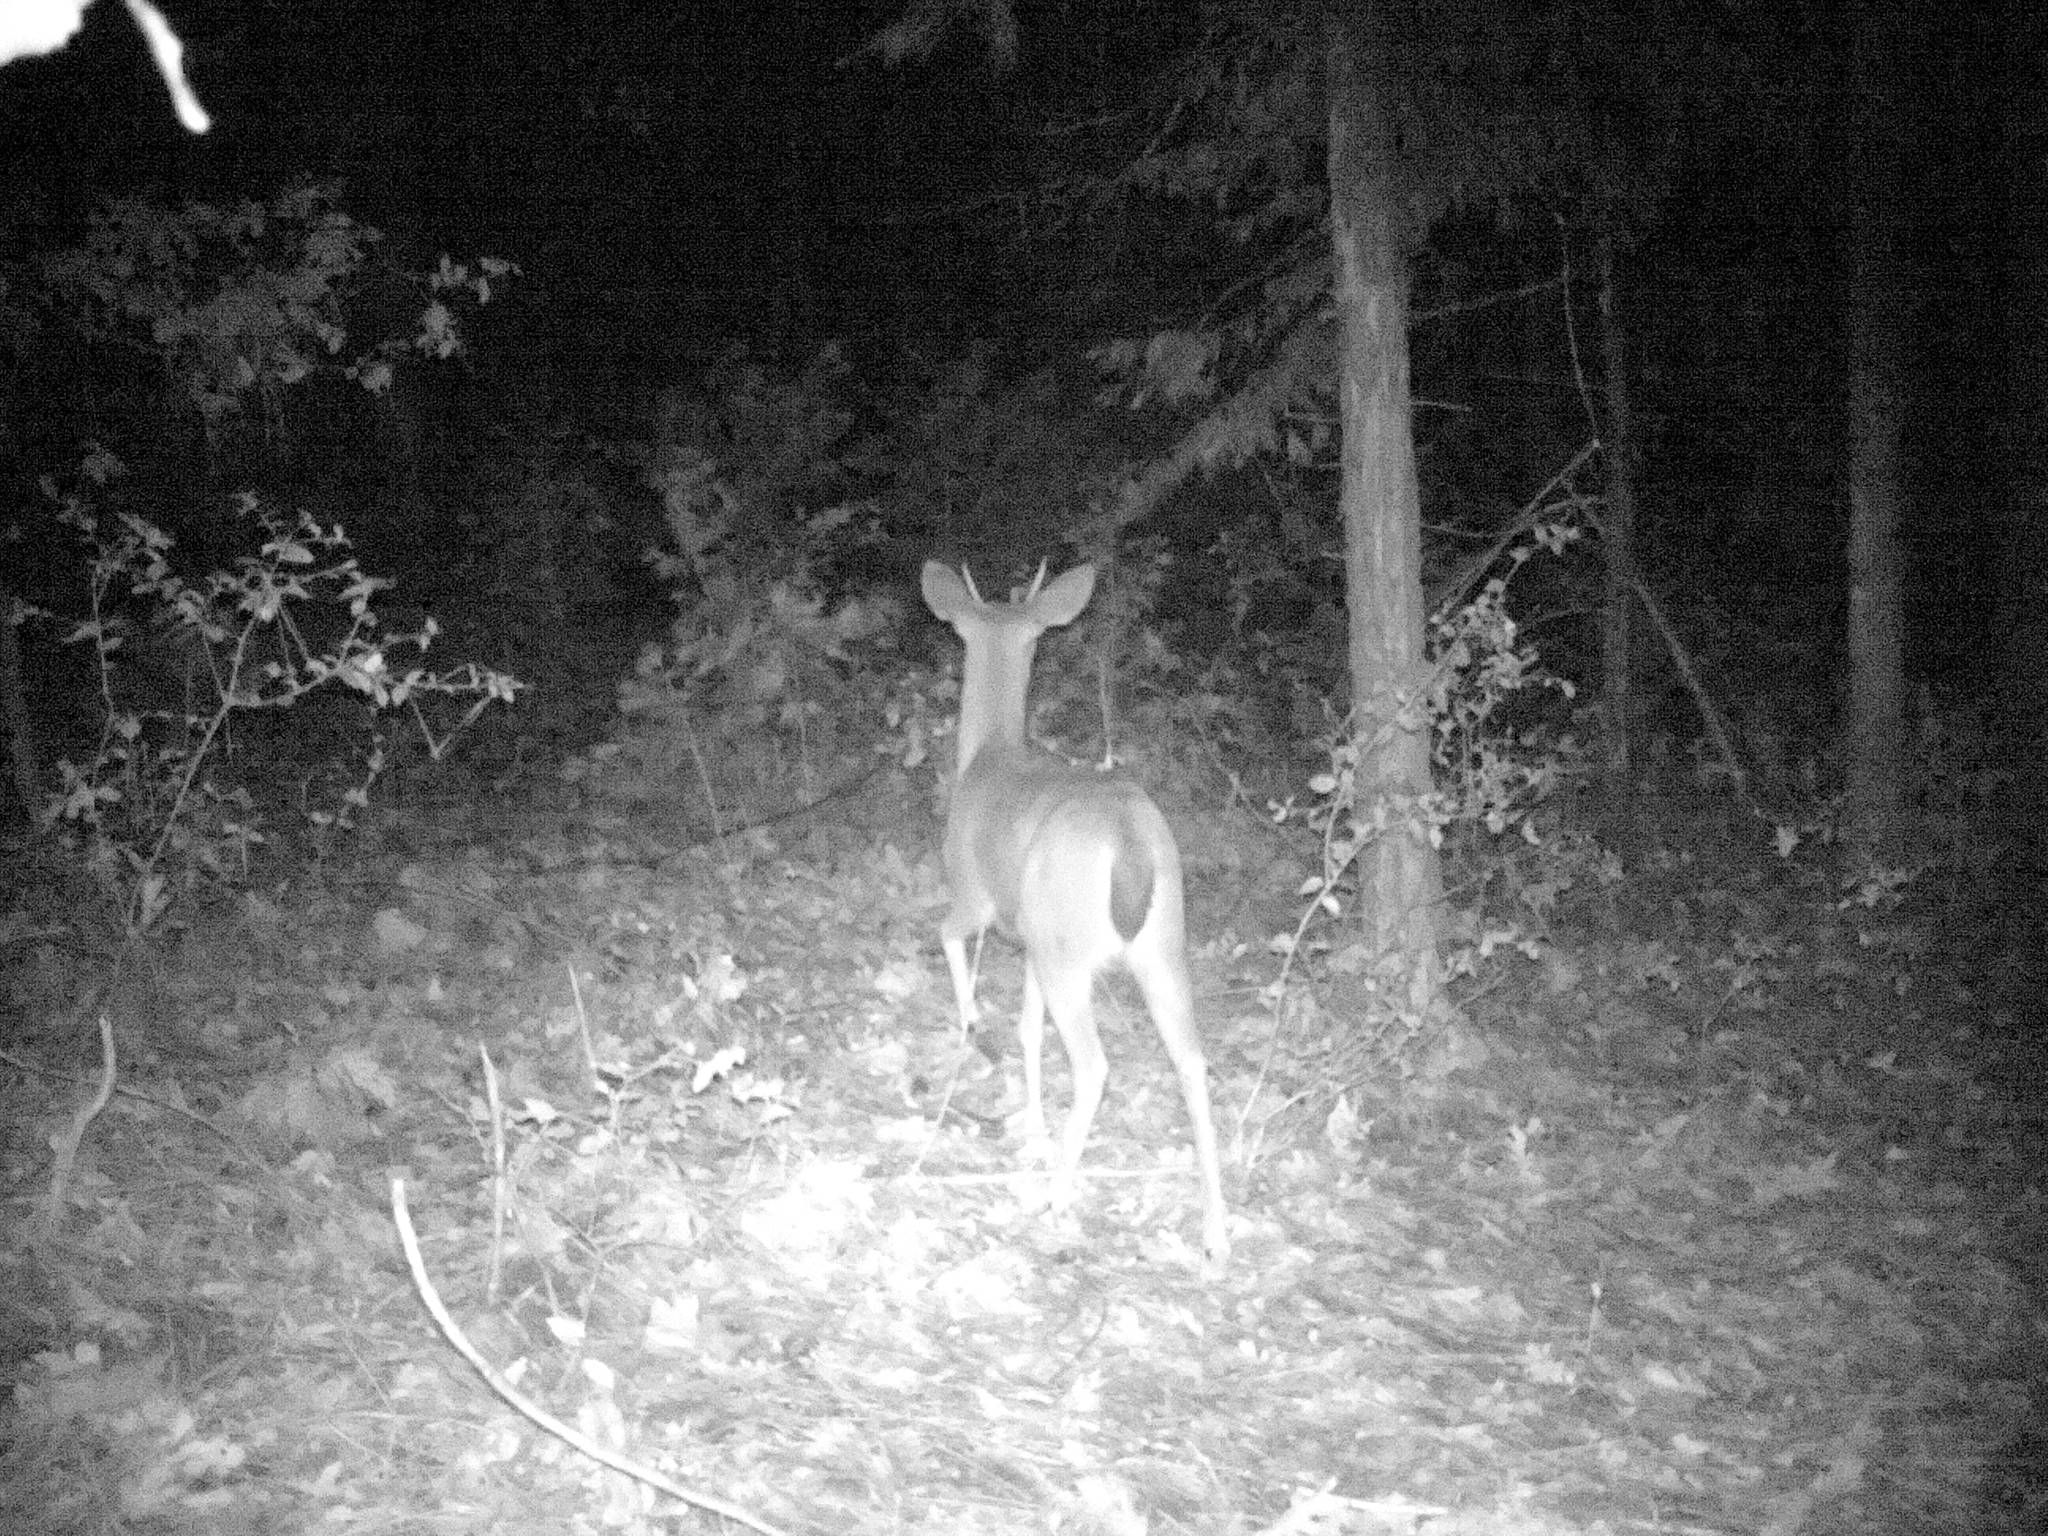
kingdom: Animalia
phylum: Chordata
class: Mammalia
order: Artiodactyla
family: Cervidae
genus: Odocoileus
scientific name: Odocoileus hemionus
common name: Mule deer
